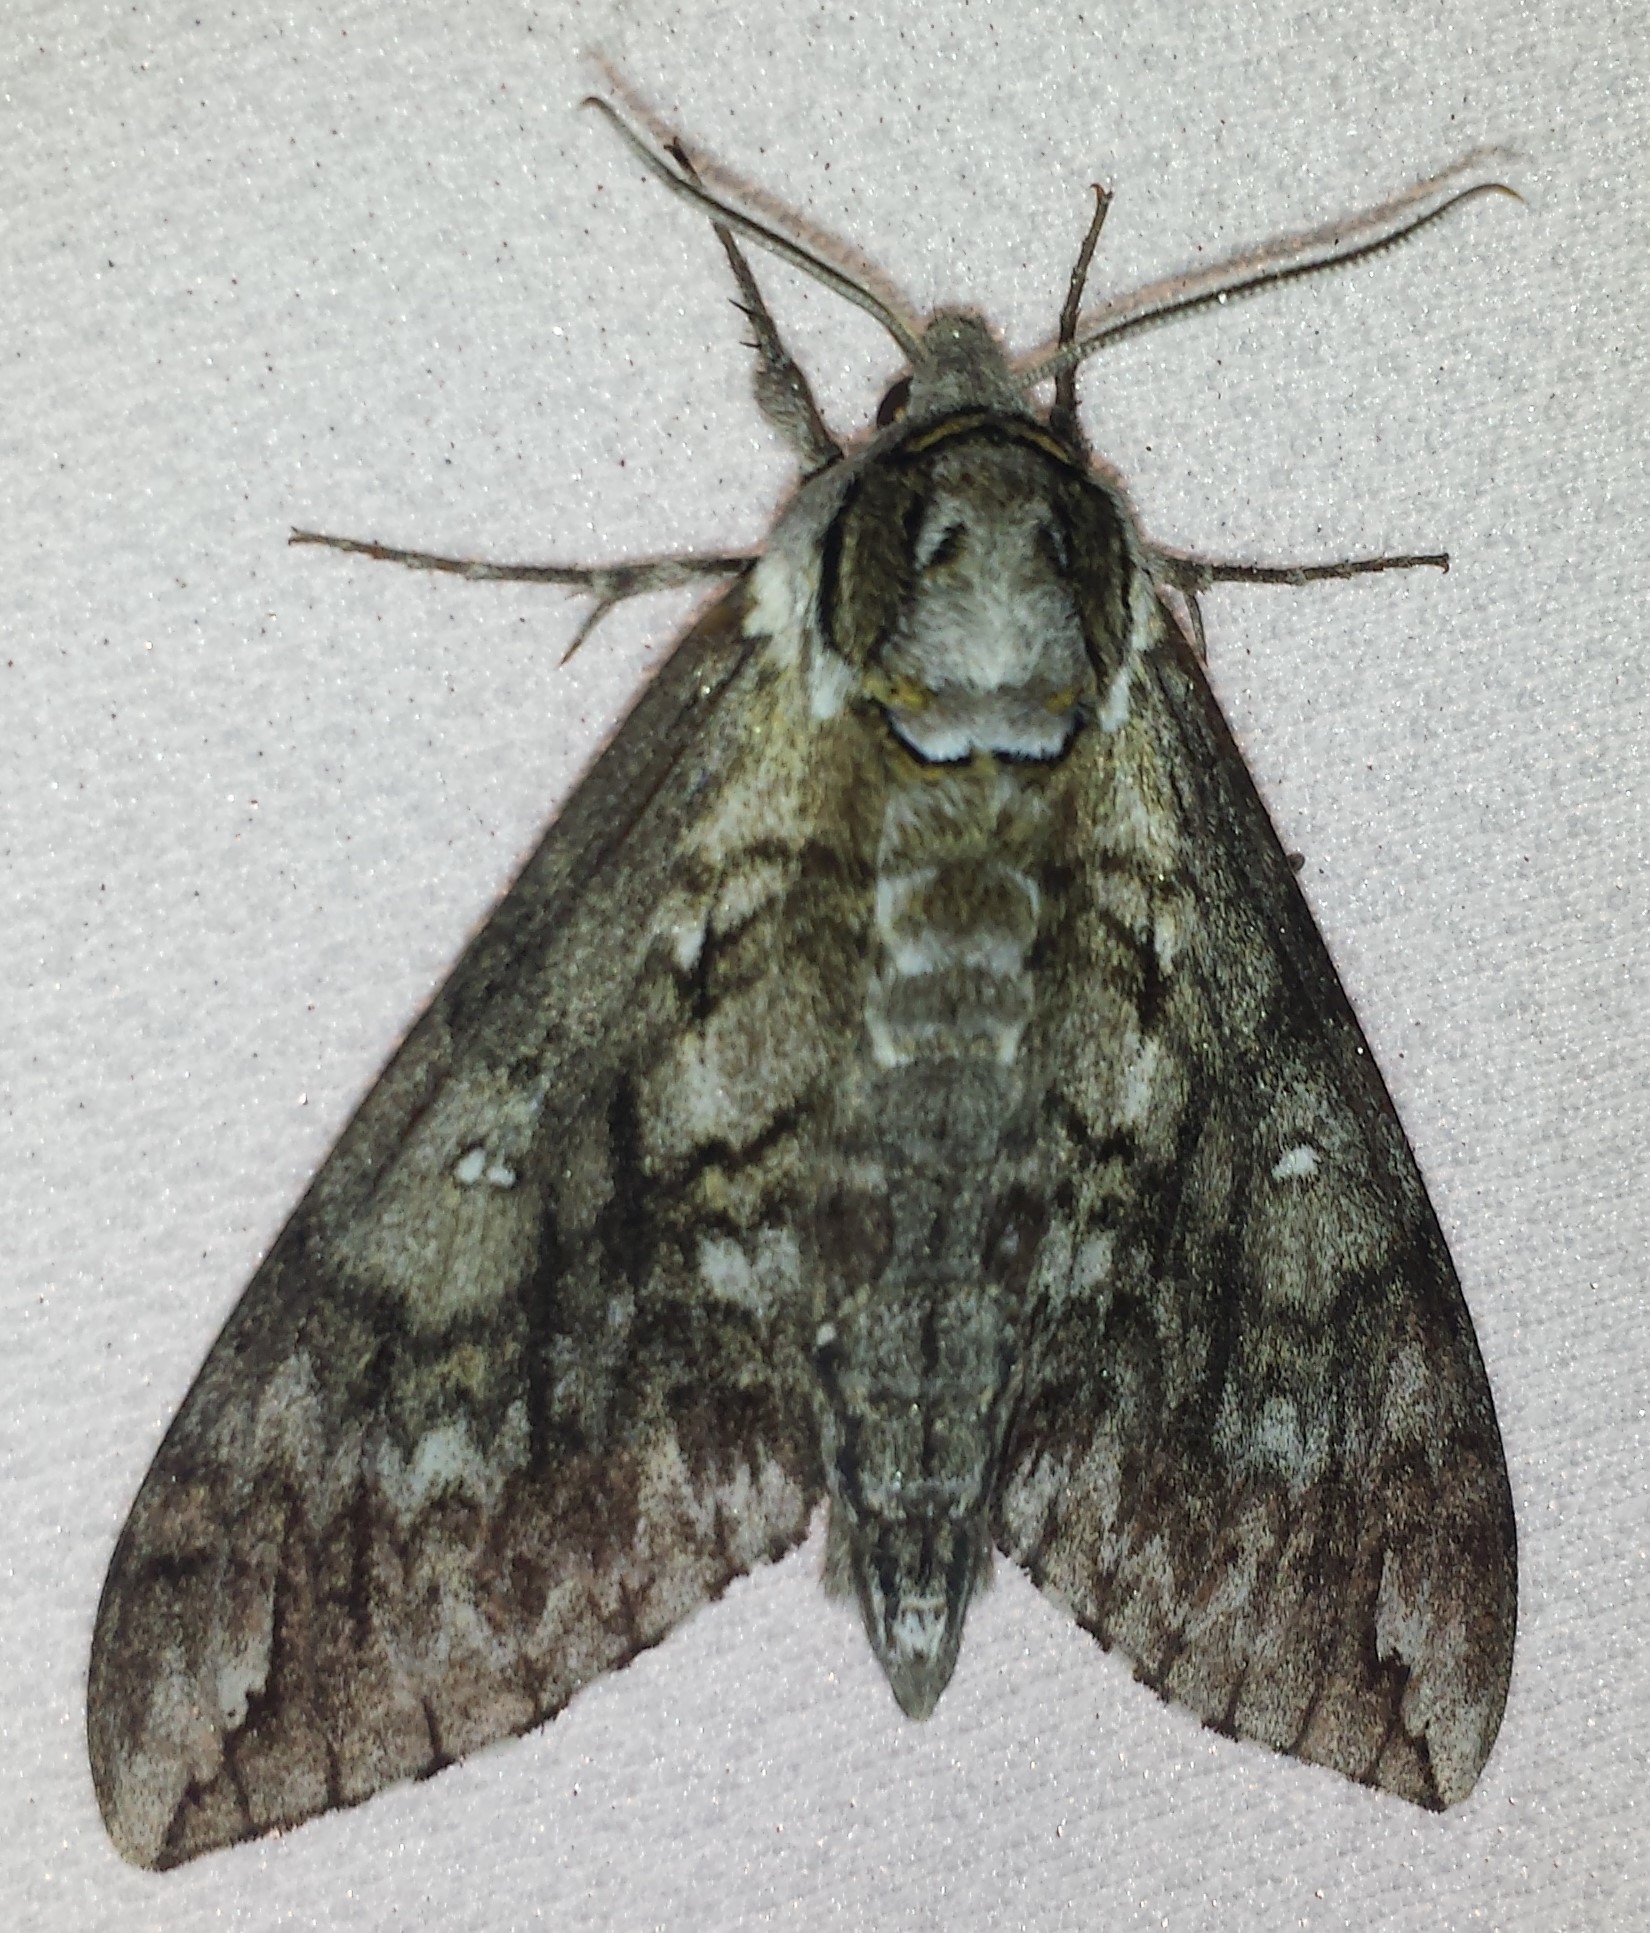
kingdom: Animalia
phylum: Arthropoda
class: Insecta
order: Lepidoptera
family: Sphingidae
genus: Ceratomia
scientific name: Ceratomia undulosa
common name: Waved sphinx
